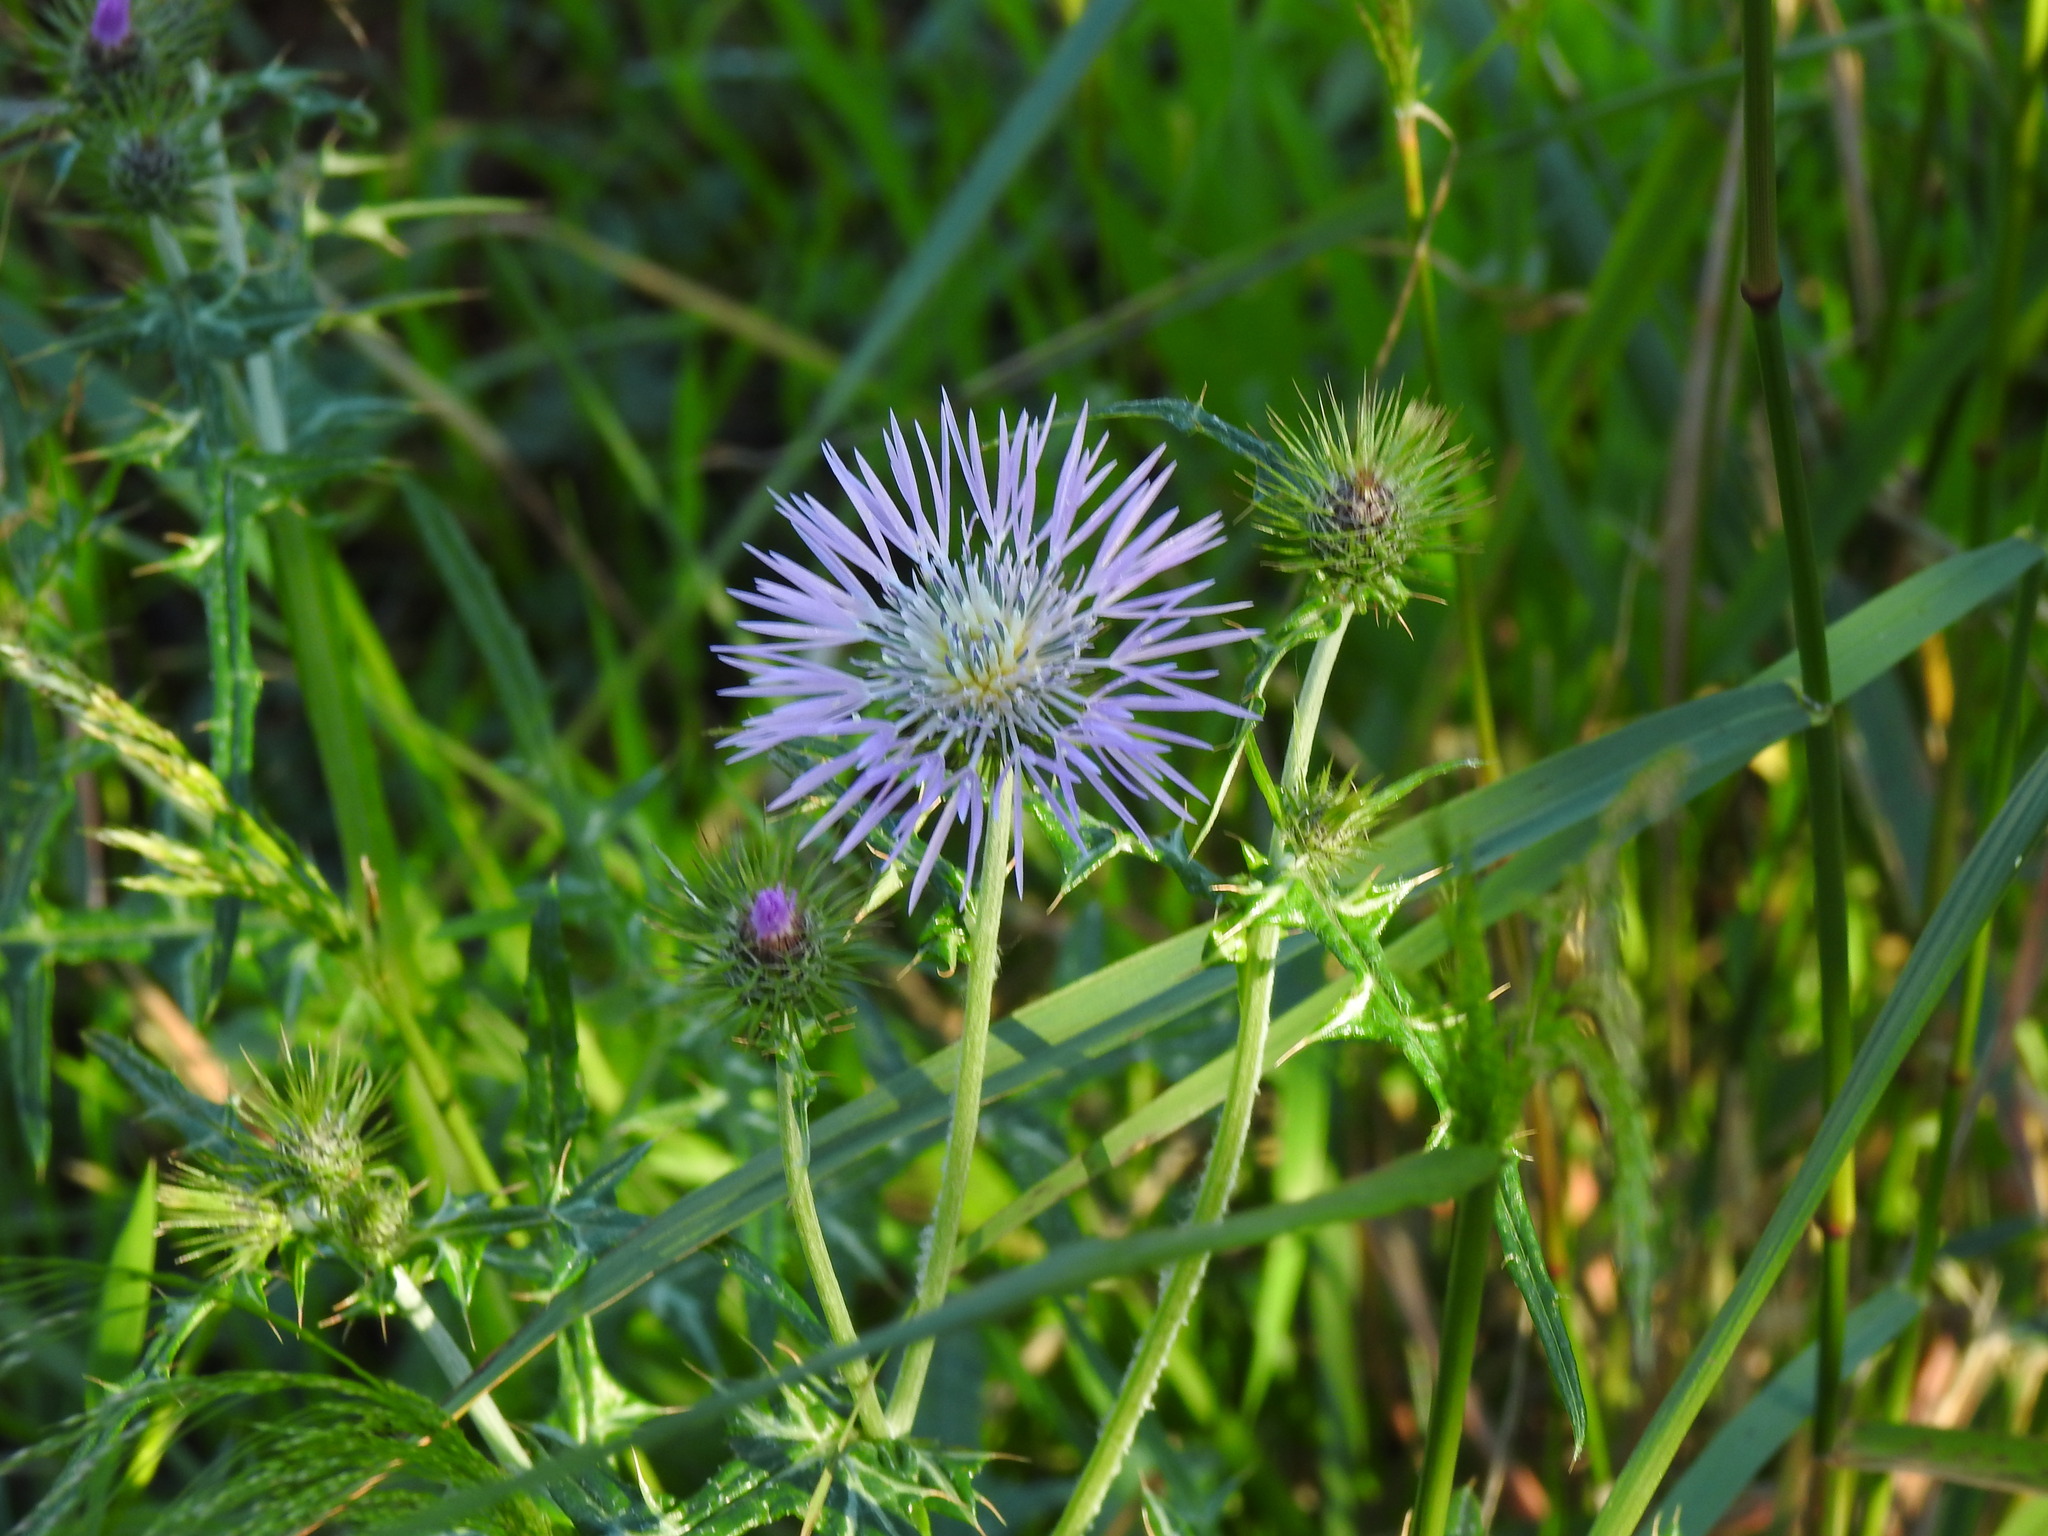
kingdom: Plantae
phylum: Tracheophyta
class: Magnoliopsida
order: Asterales
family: Asteraceae
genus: Galactites
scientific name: Galactites tomentosa
